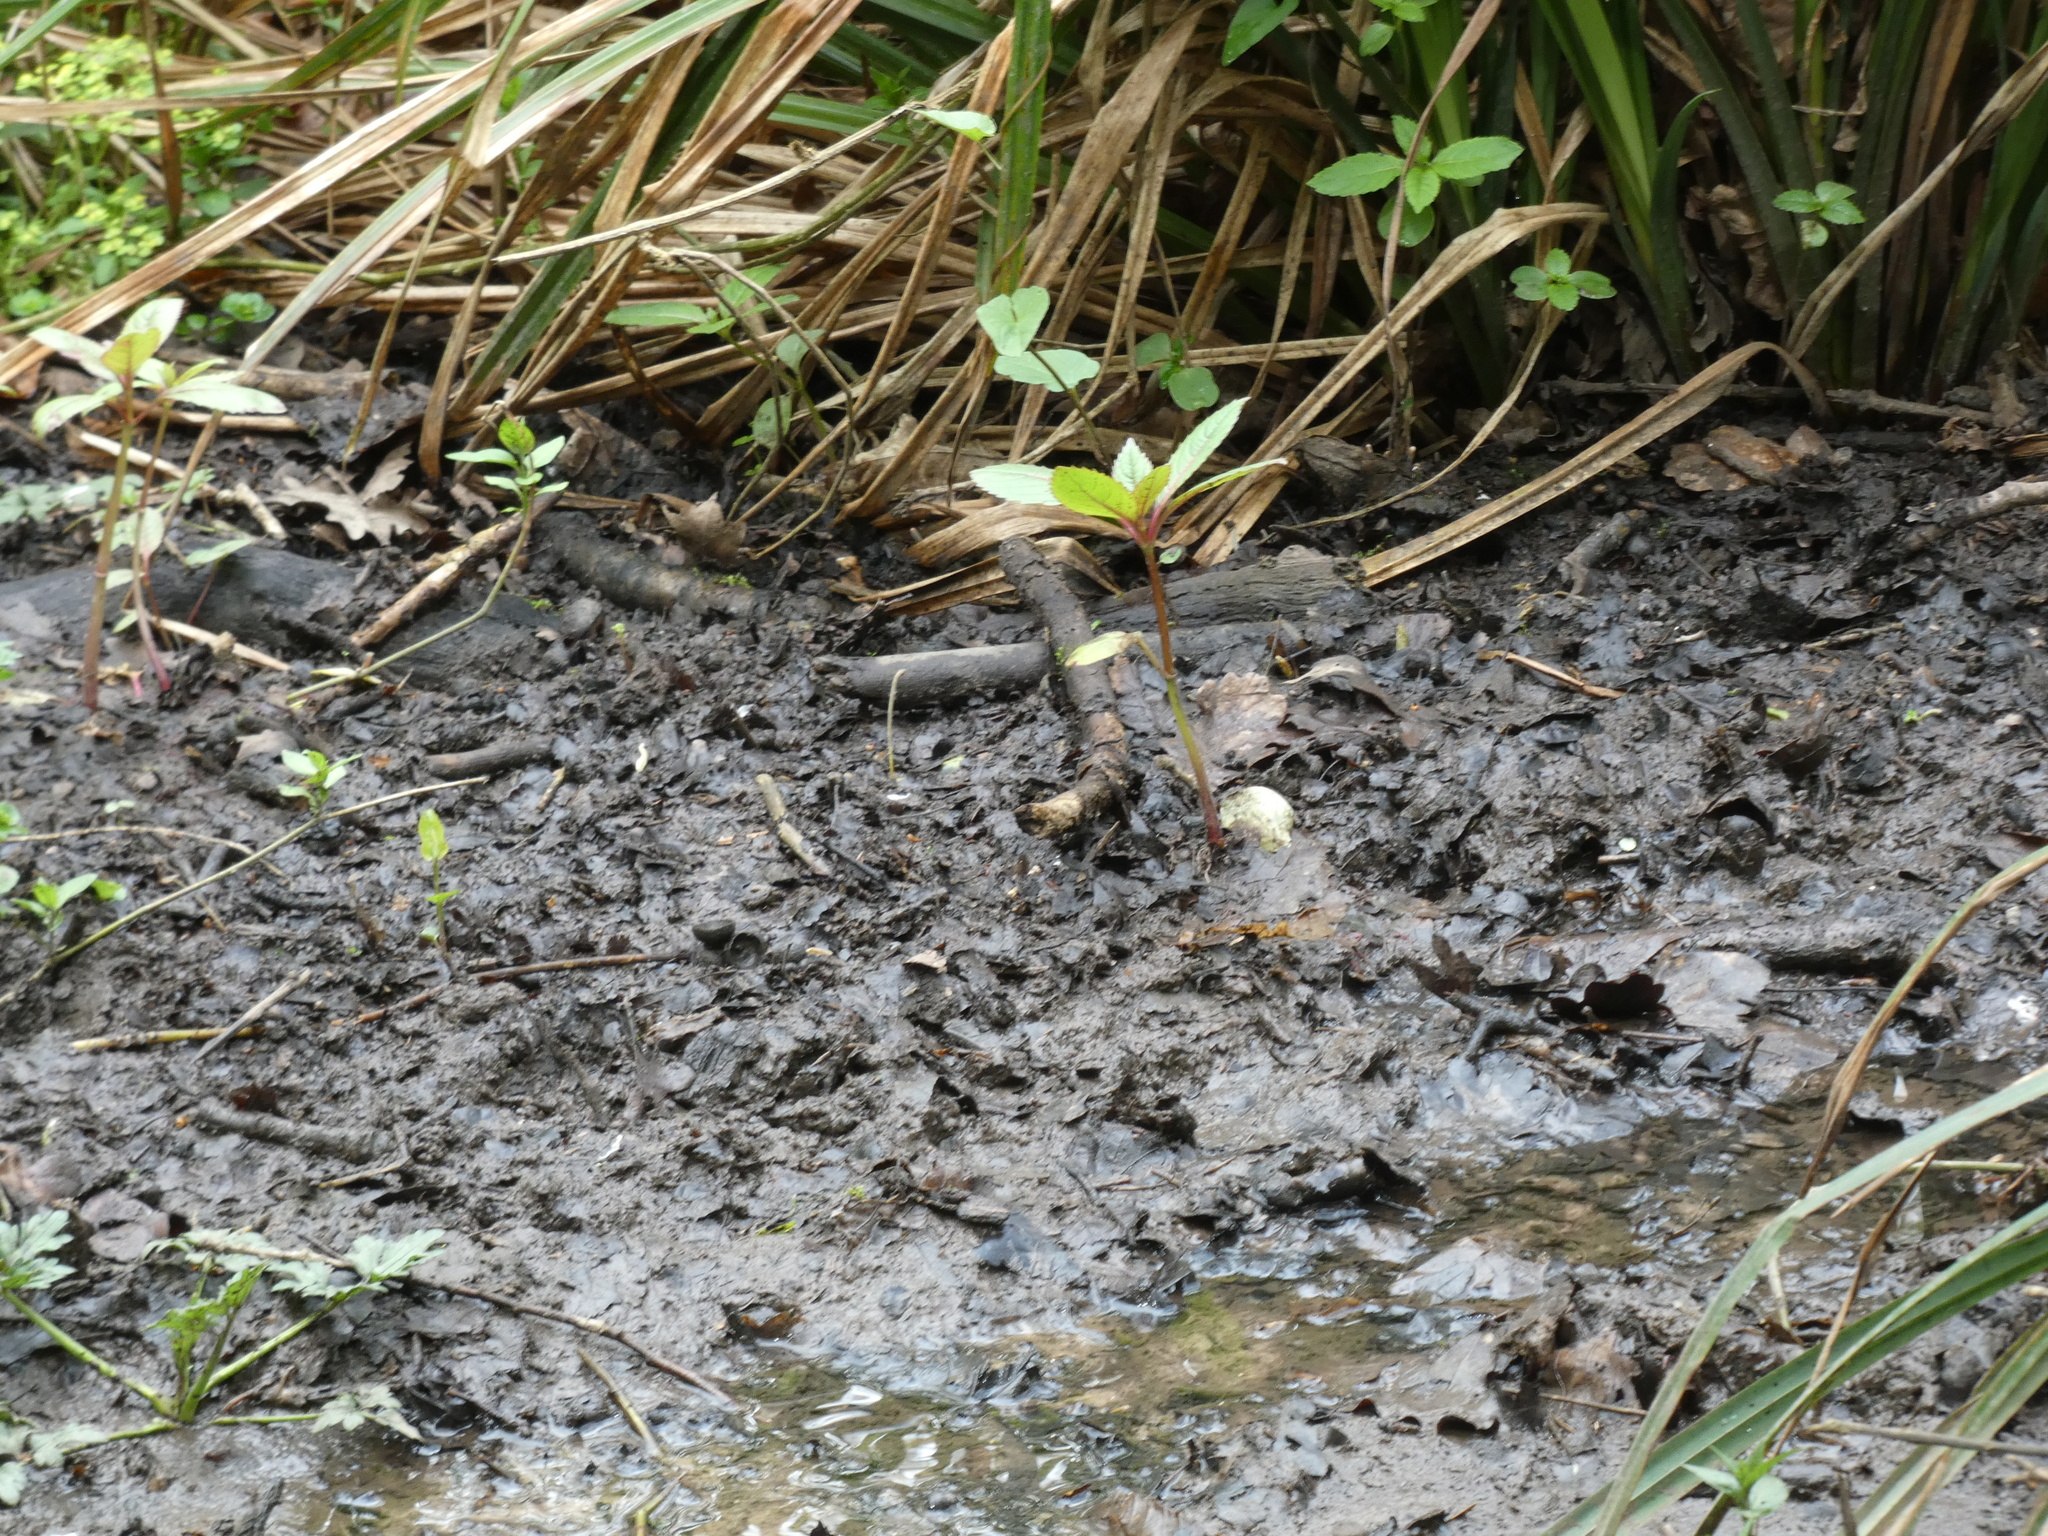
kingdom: Plantae
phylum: Tracheophyta
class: Magnoliopsida
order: Ericales
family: Balsaminaceae
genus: Impatiens
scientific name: Impatiens glandulifera
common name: Himalayan balsam
